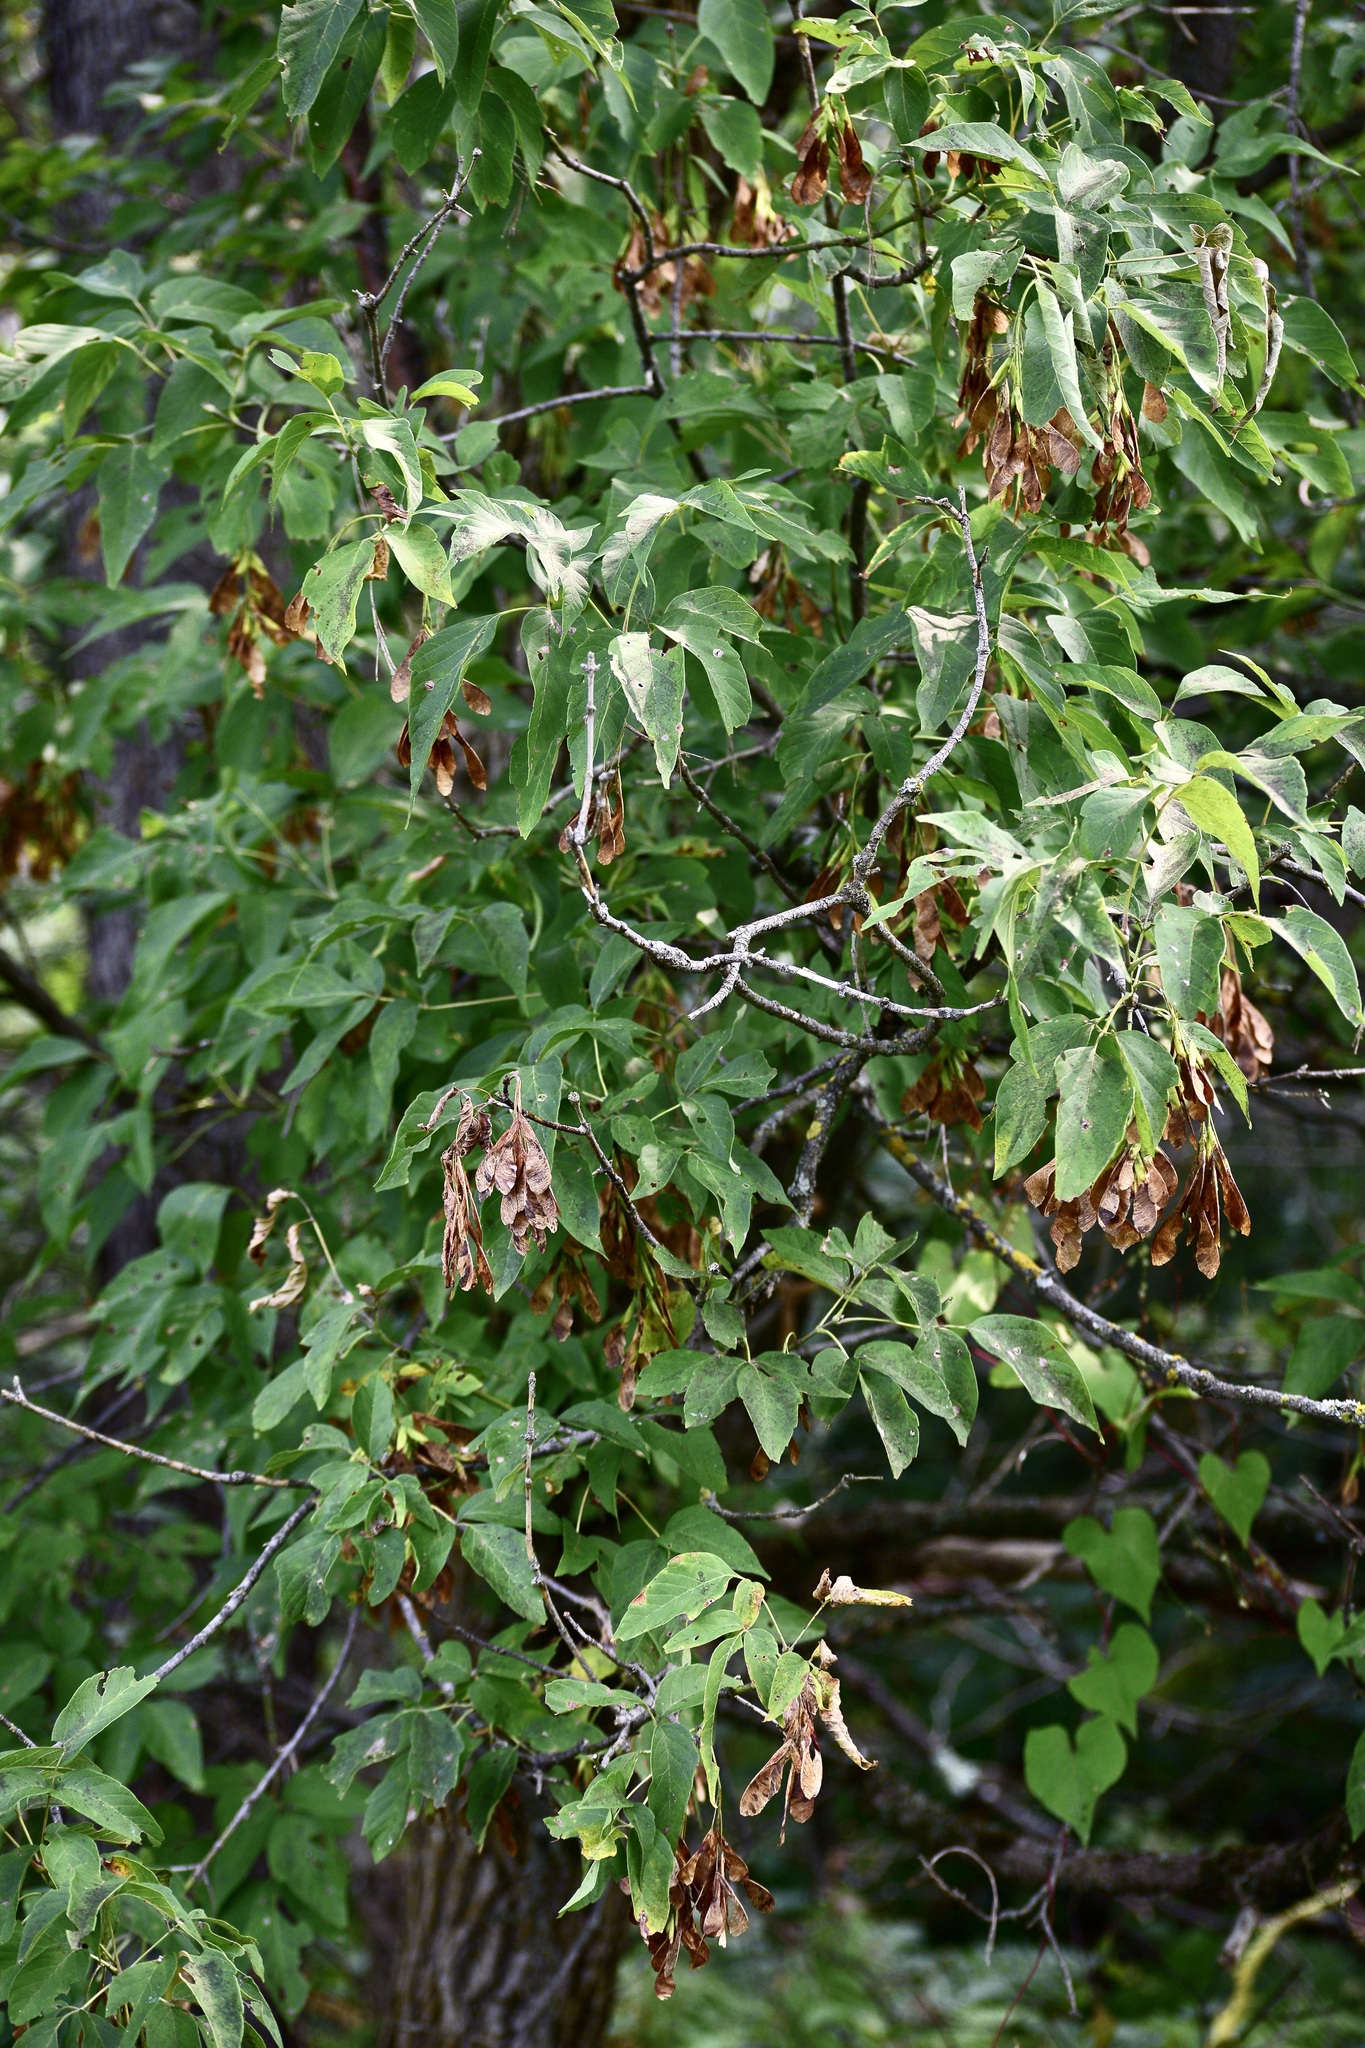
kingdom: Plantae
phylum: Tracheophyta
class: Magnoliopsida
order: Sapindales
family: Sapindaceae
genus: Acer
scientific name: Acer negundo
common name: Ashleaf maple
